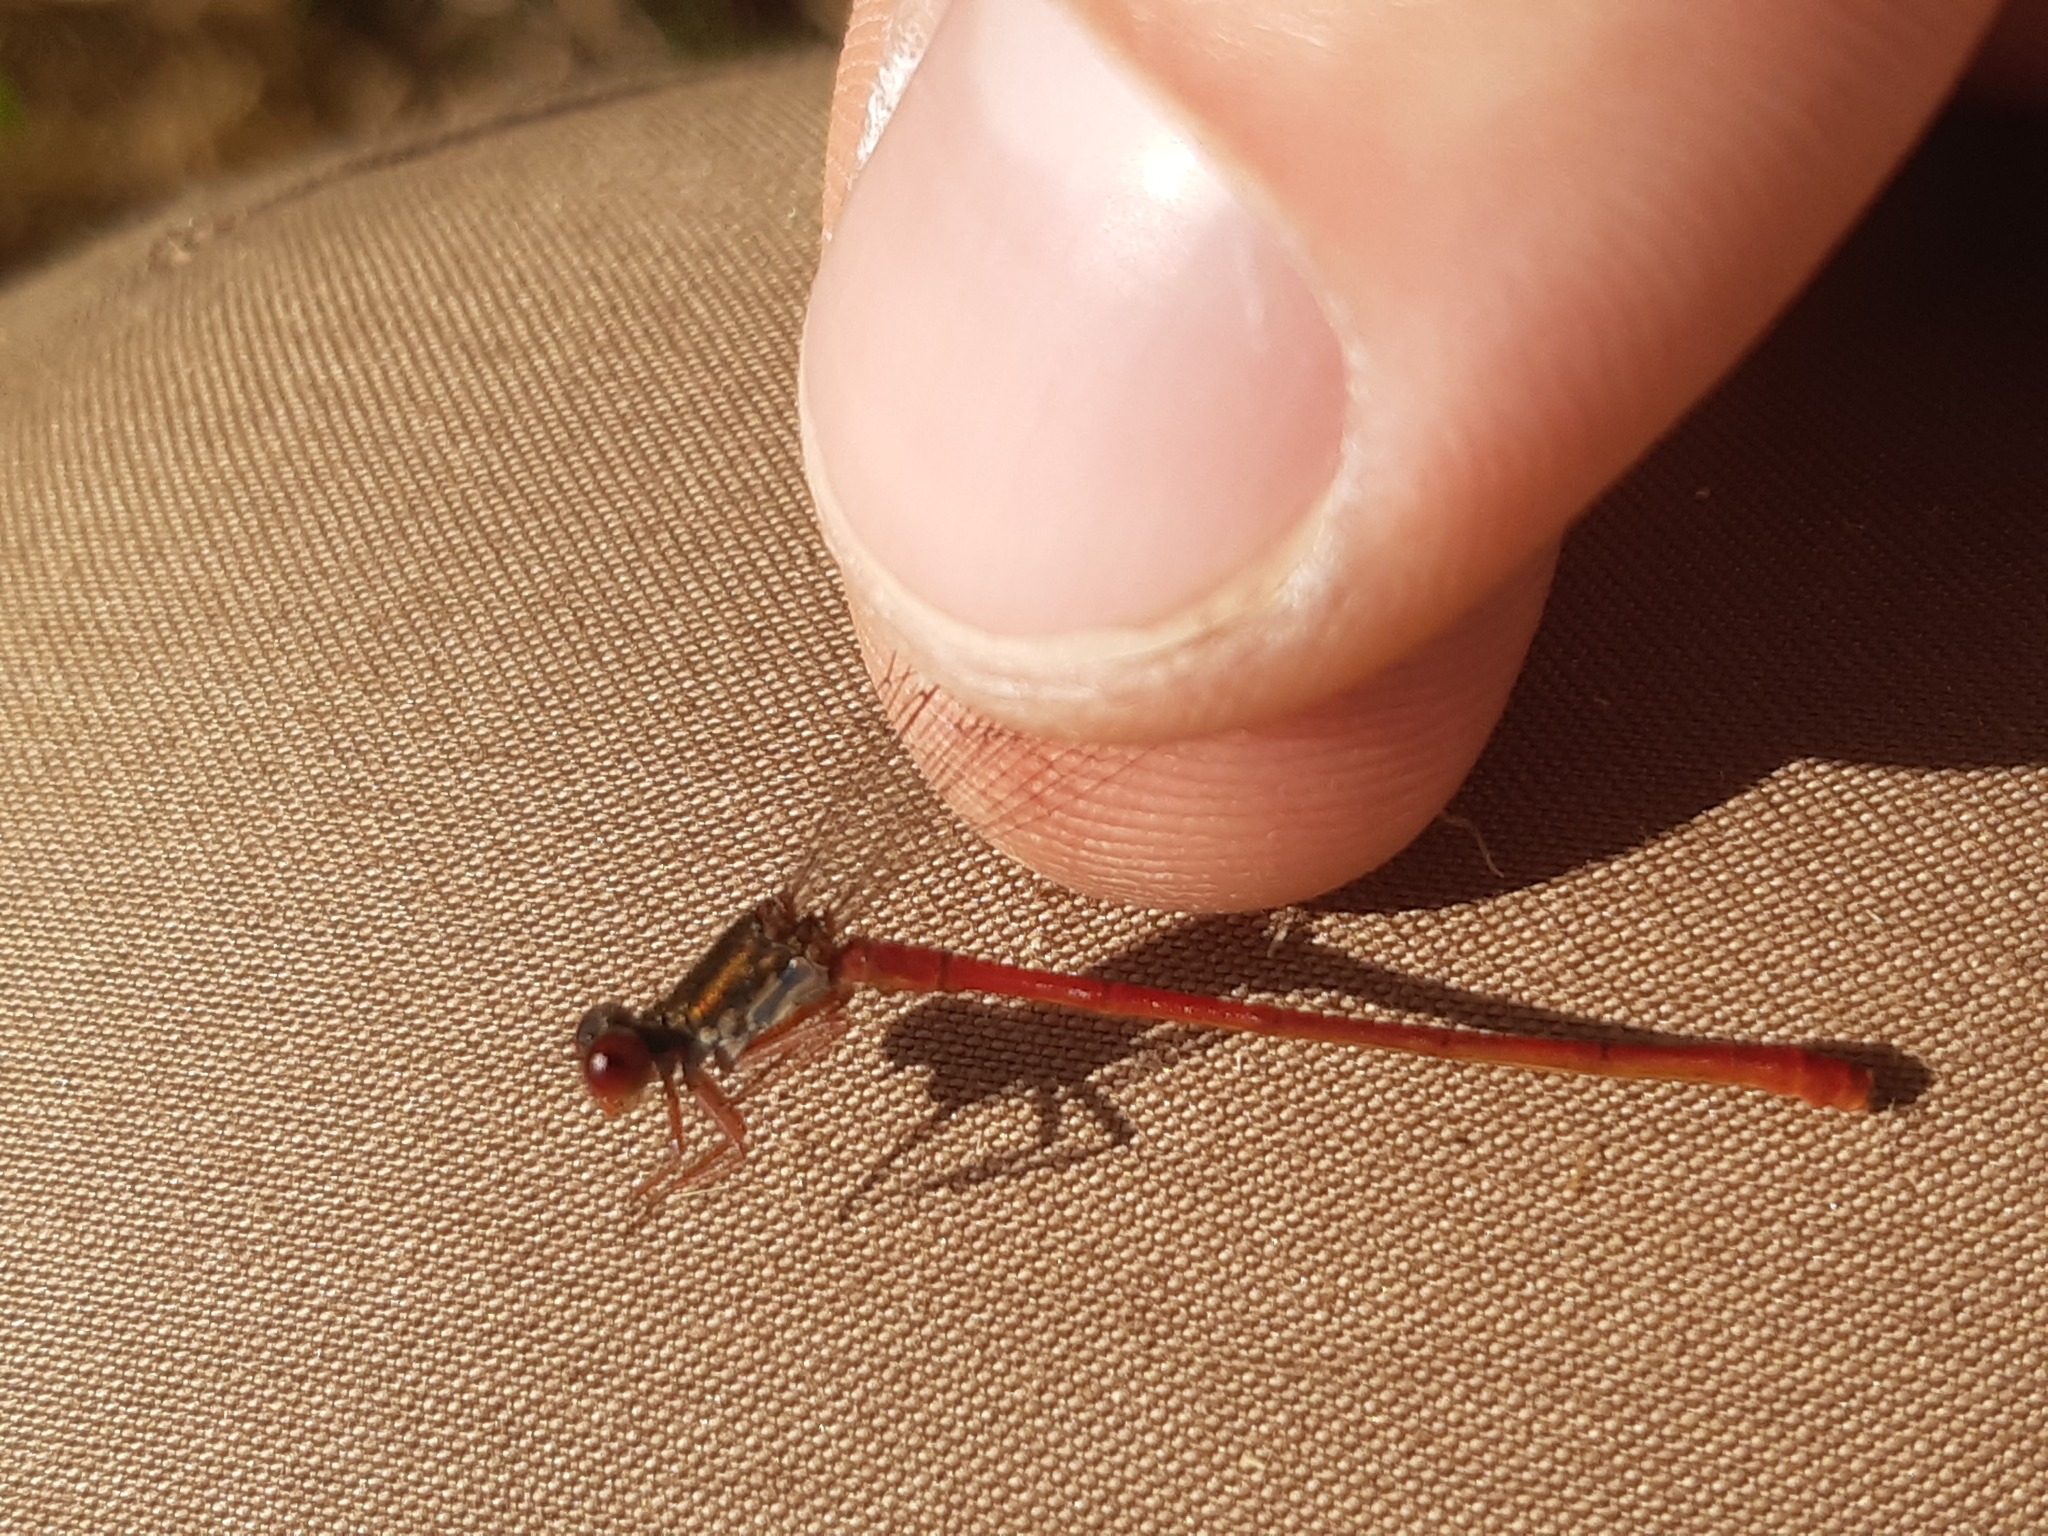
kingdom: Animalia
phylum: Arthropoda
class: Insecta
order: Odonata
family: Coenagrionidae
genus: Ceriagrion
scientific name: Ceriagrion tenellum
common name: Small red damselfly
